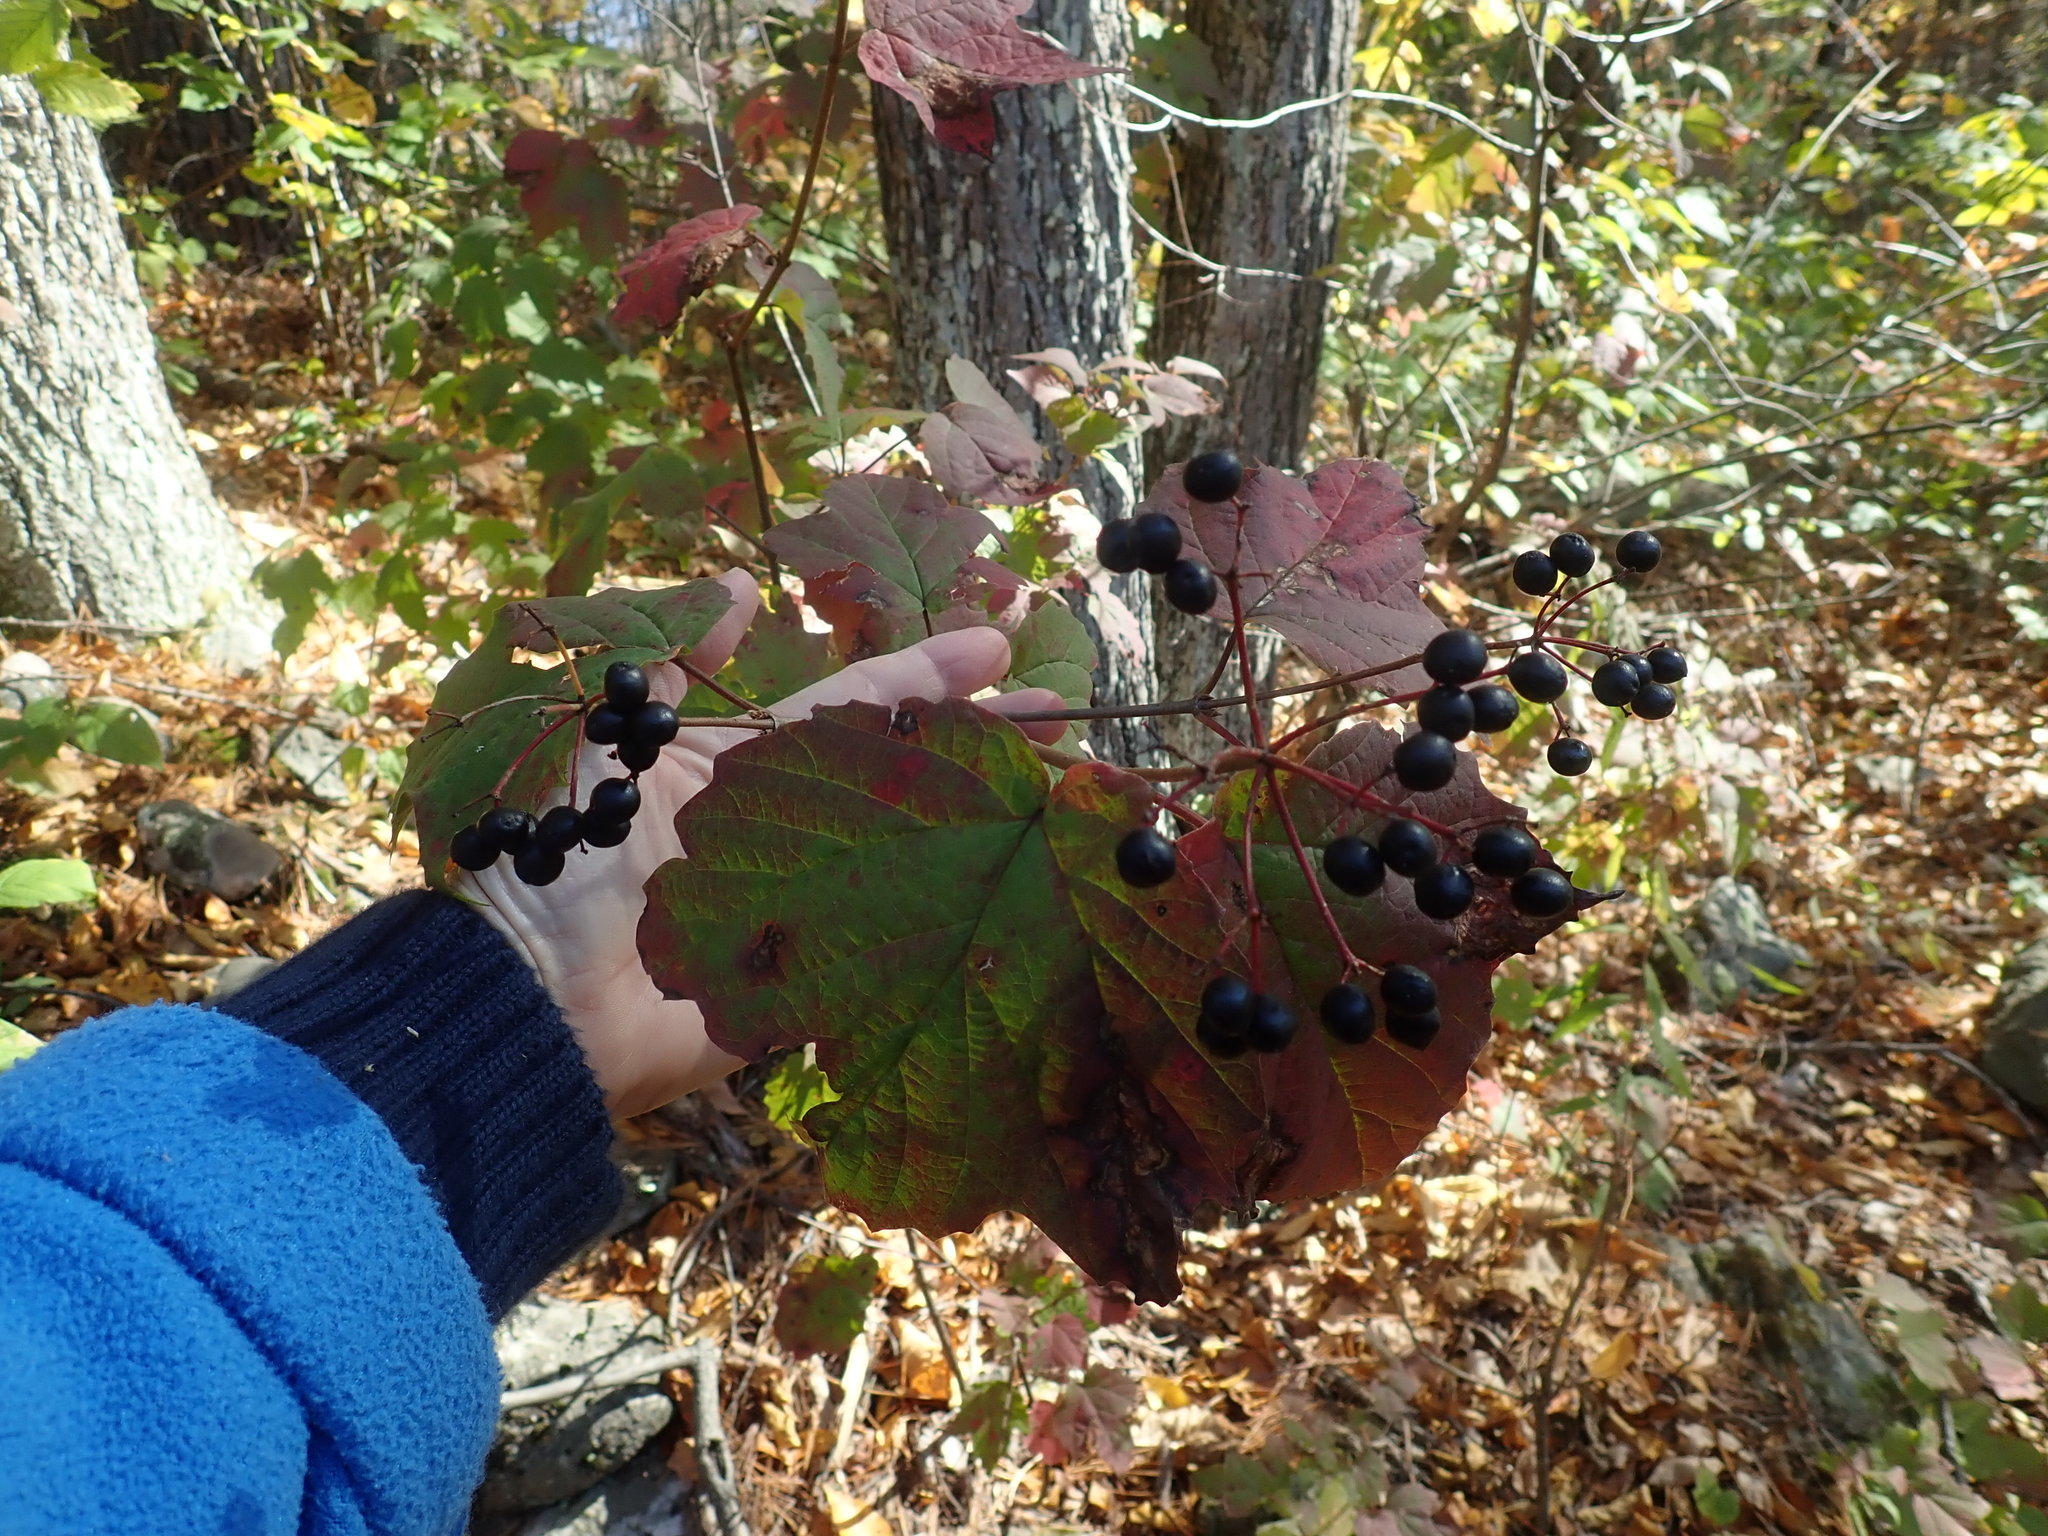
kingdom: Plantae
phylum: Tracheophyta
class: Magnoliopsida
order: Dipsacales
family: Viburnaceae
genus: Viburnum
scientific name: Viburnum acerifolium
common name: Dockmackie
